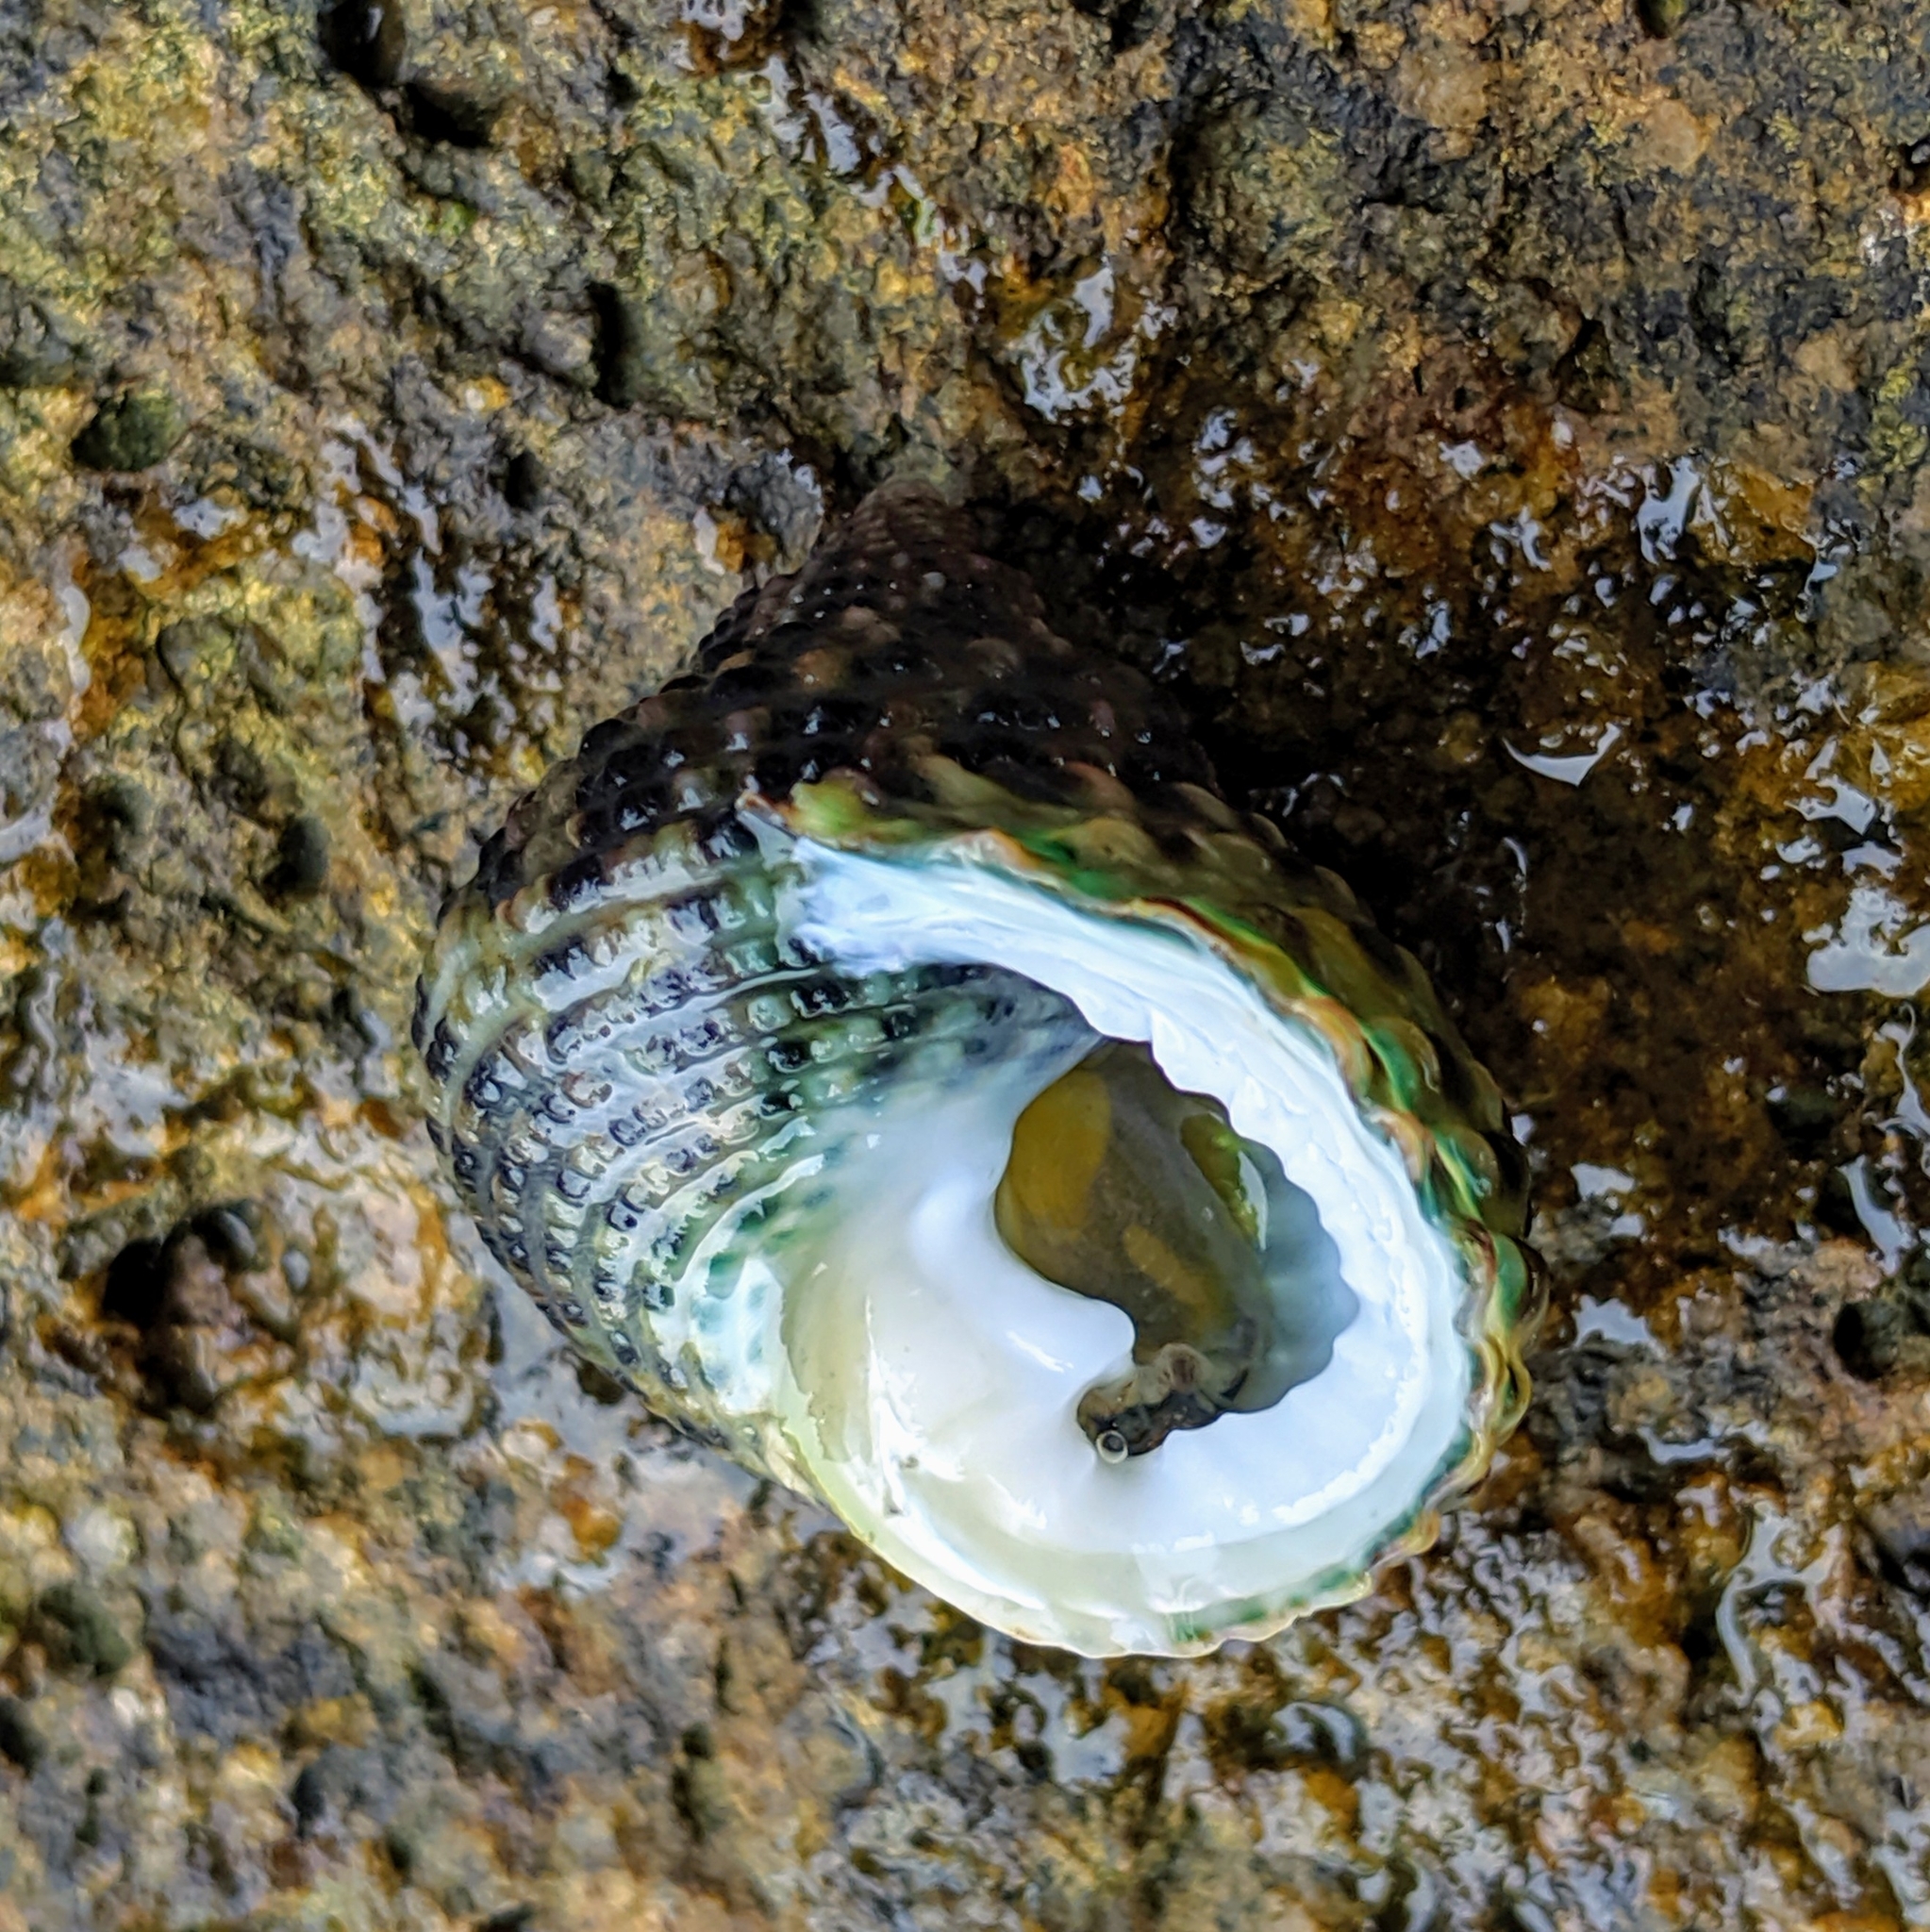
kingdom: Animalia
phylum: Mollusca
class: Gastropoda
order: Trochida
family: Trochidae
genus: Monodonta
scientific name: Monodonta labio
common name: Labio
